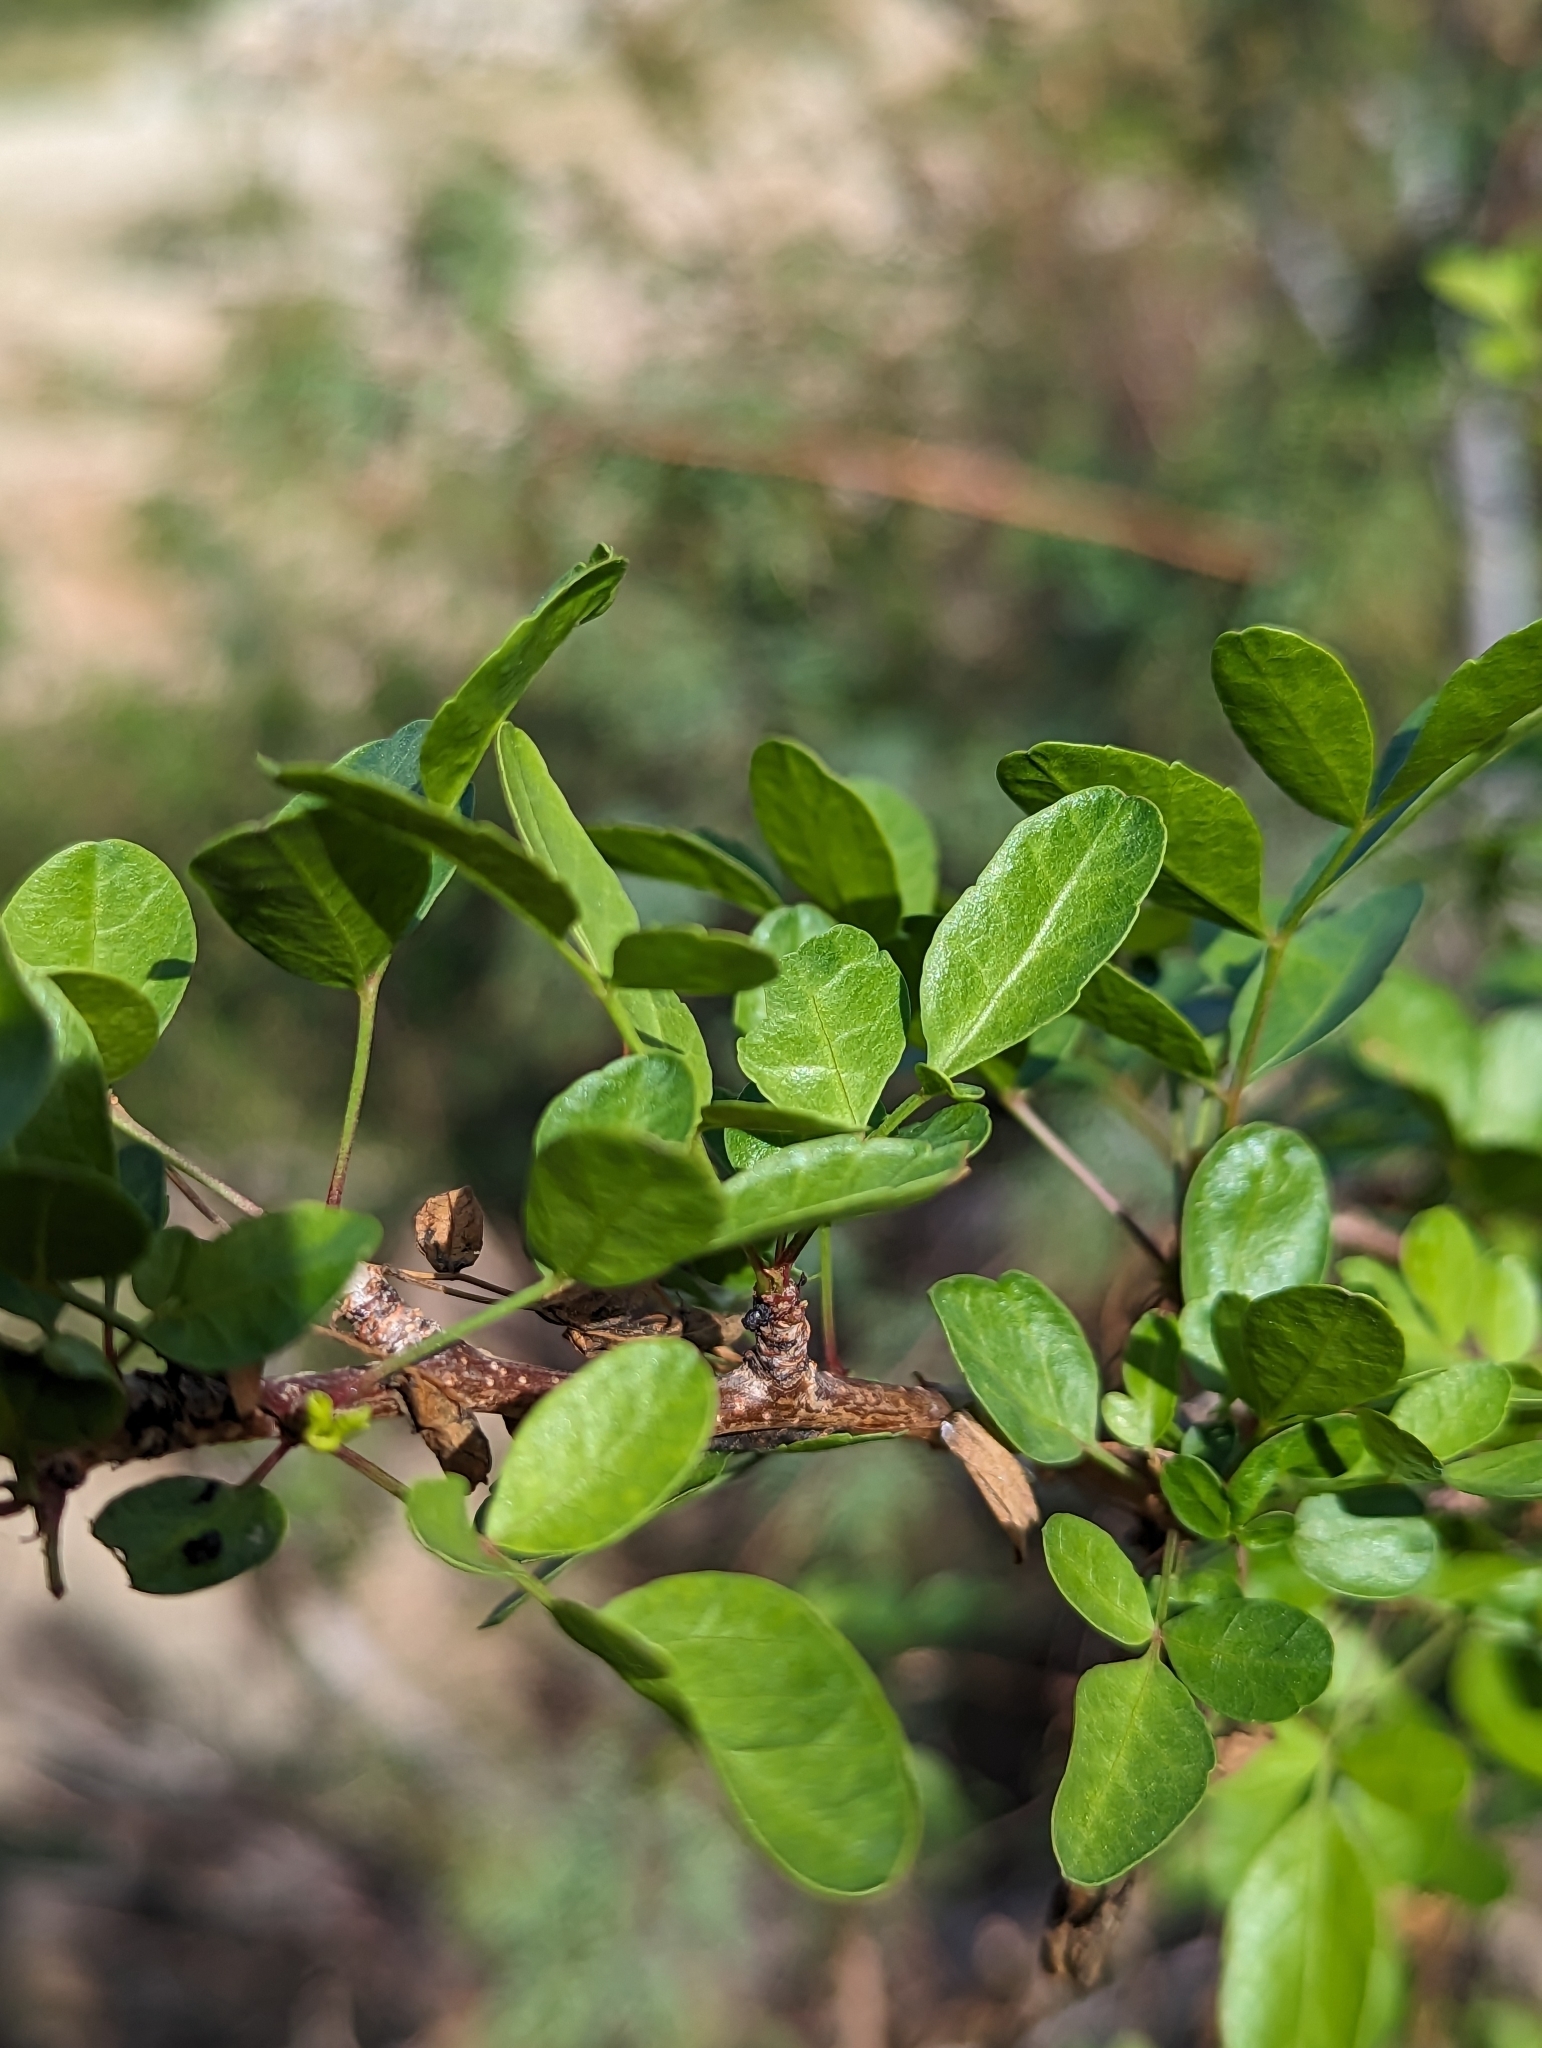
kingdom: Plantae
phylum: Tracheophyta
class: Magnoliopsida
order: Sapindales
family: Burseraceae
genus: Bursera
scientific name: Bursera fagaroides
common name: Elephant tree
